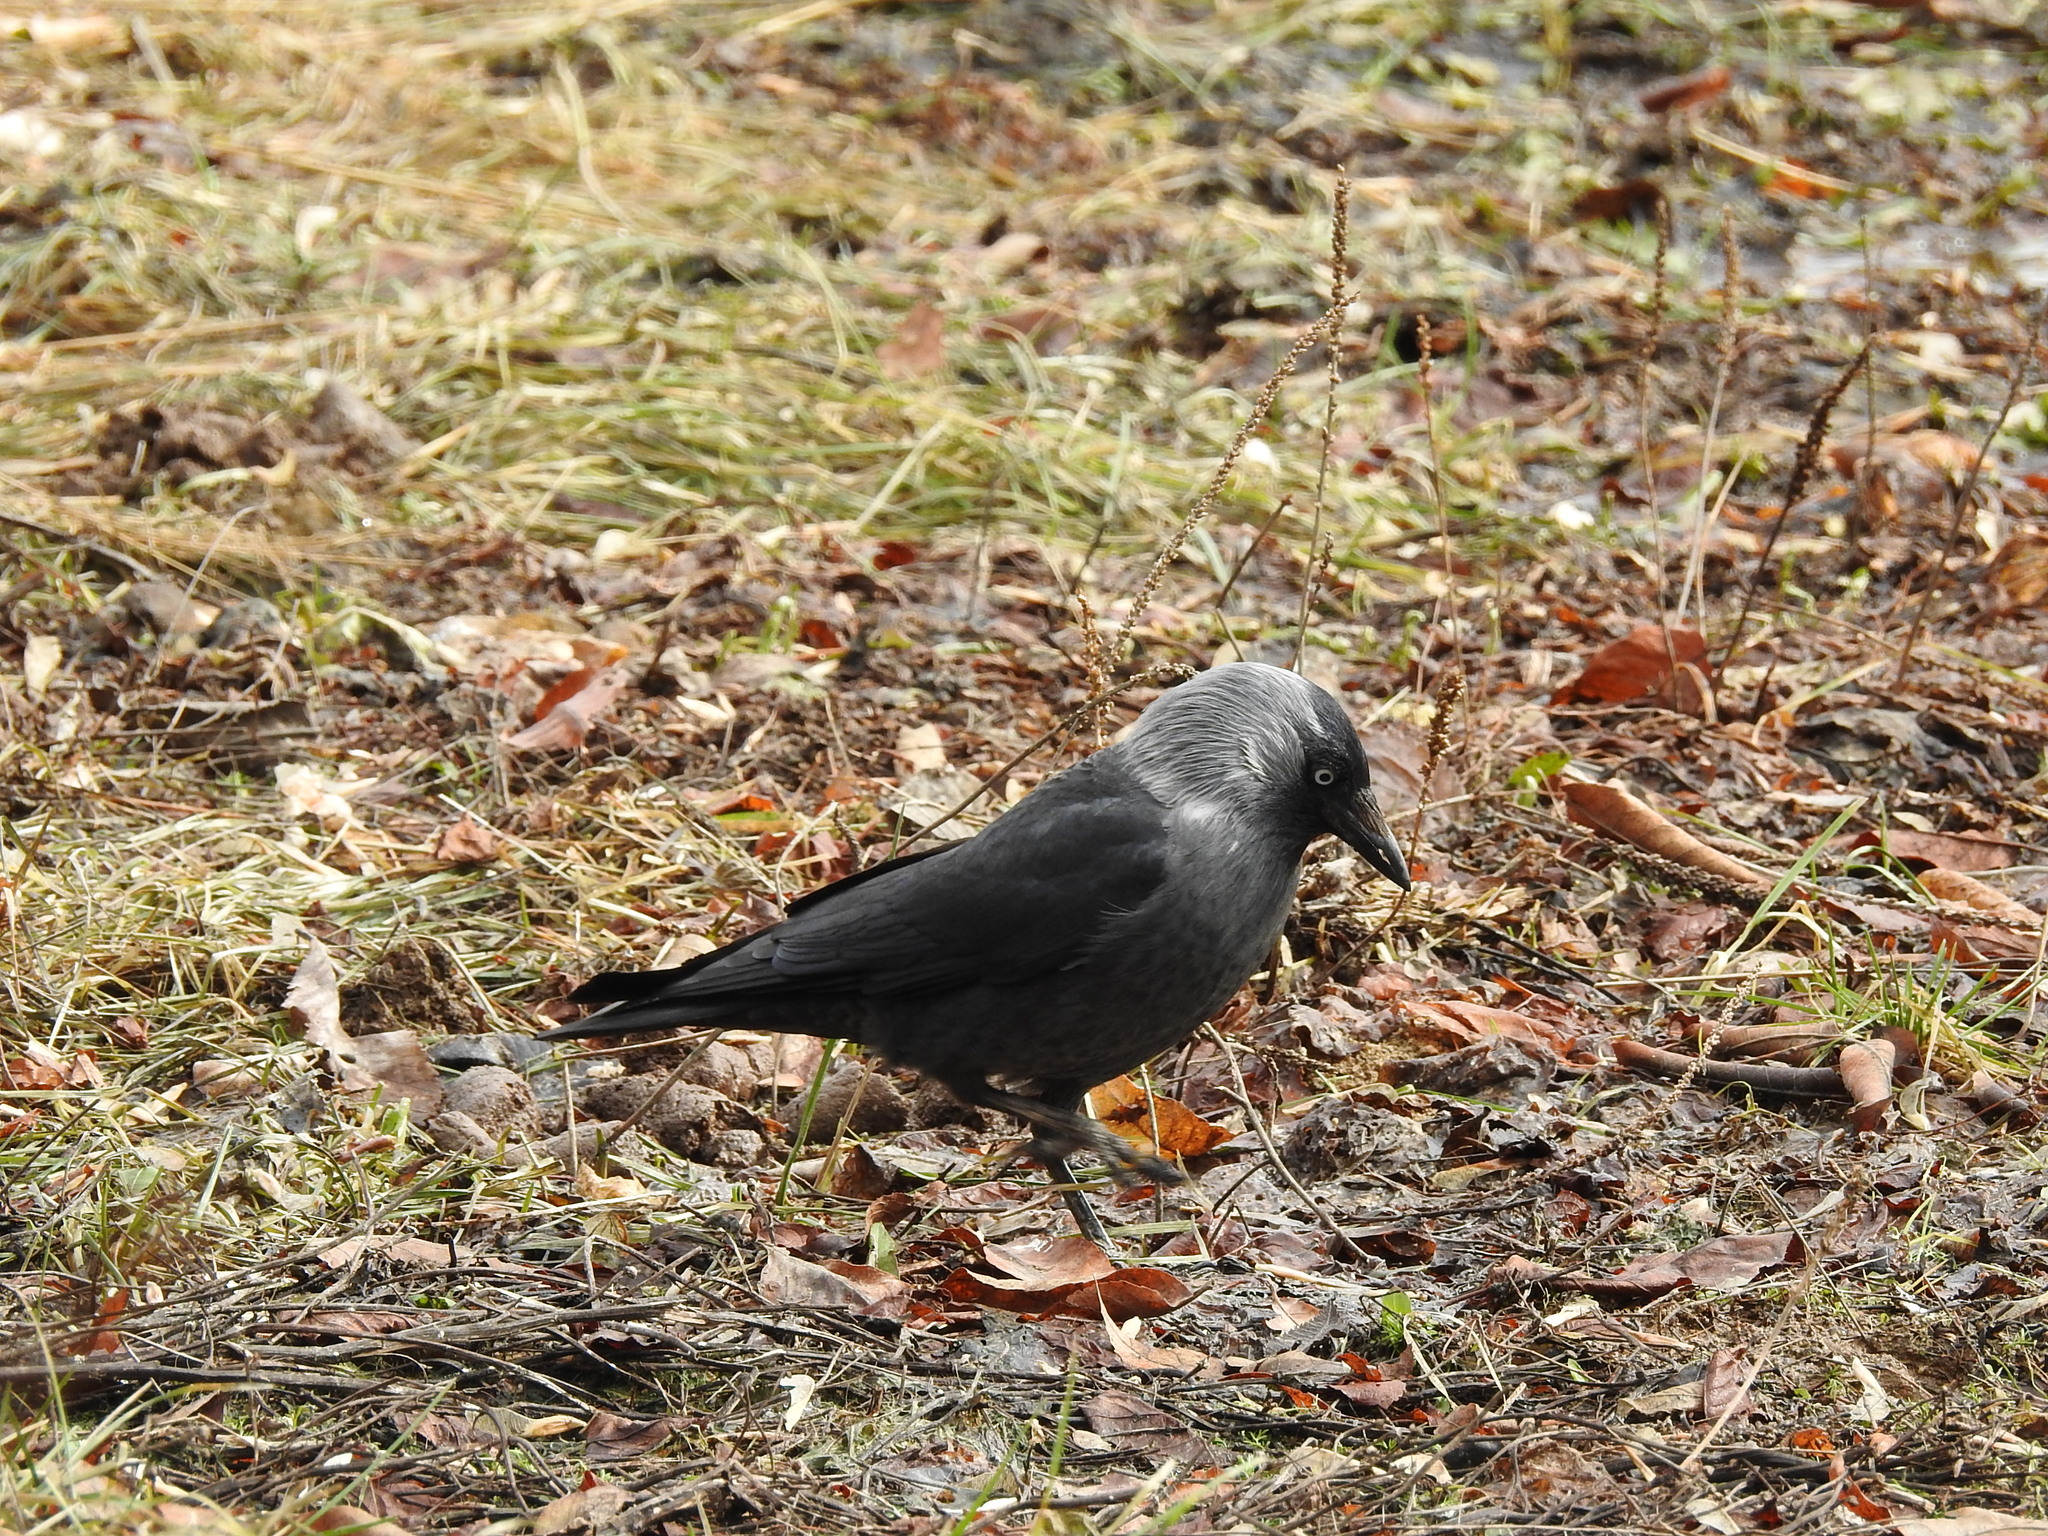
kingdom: Animalia
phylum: Chordata
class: Aves
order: Passeriformes
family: Corvidae
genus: Coloeus
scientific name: Coloeus monedula
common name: Western jackdaw
